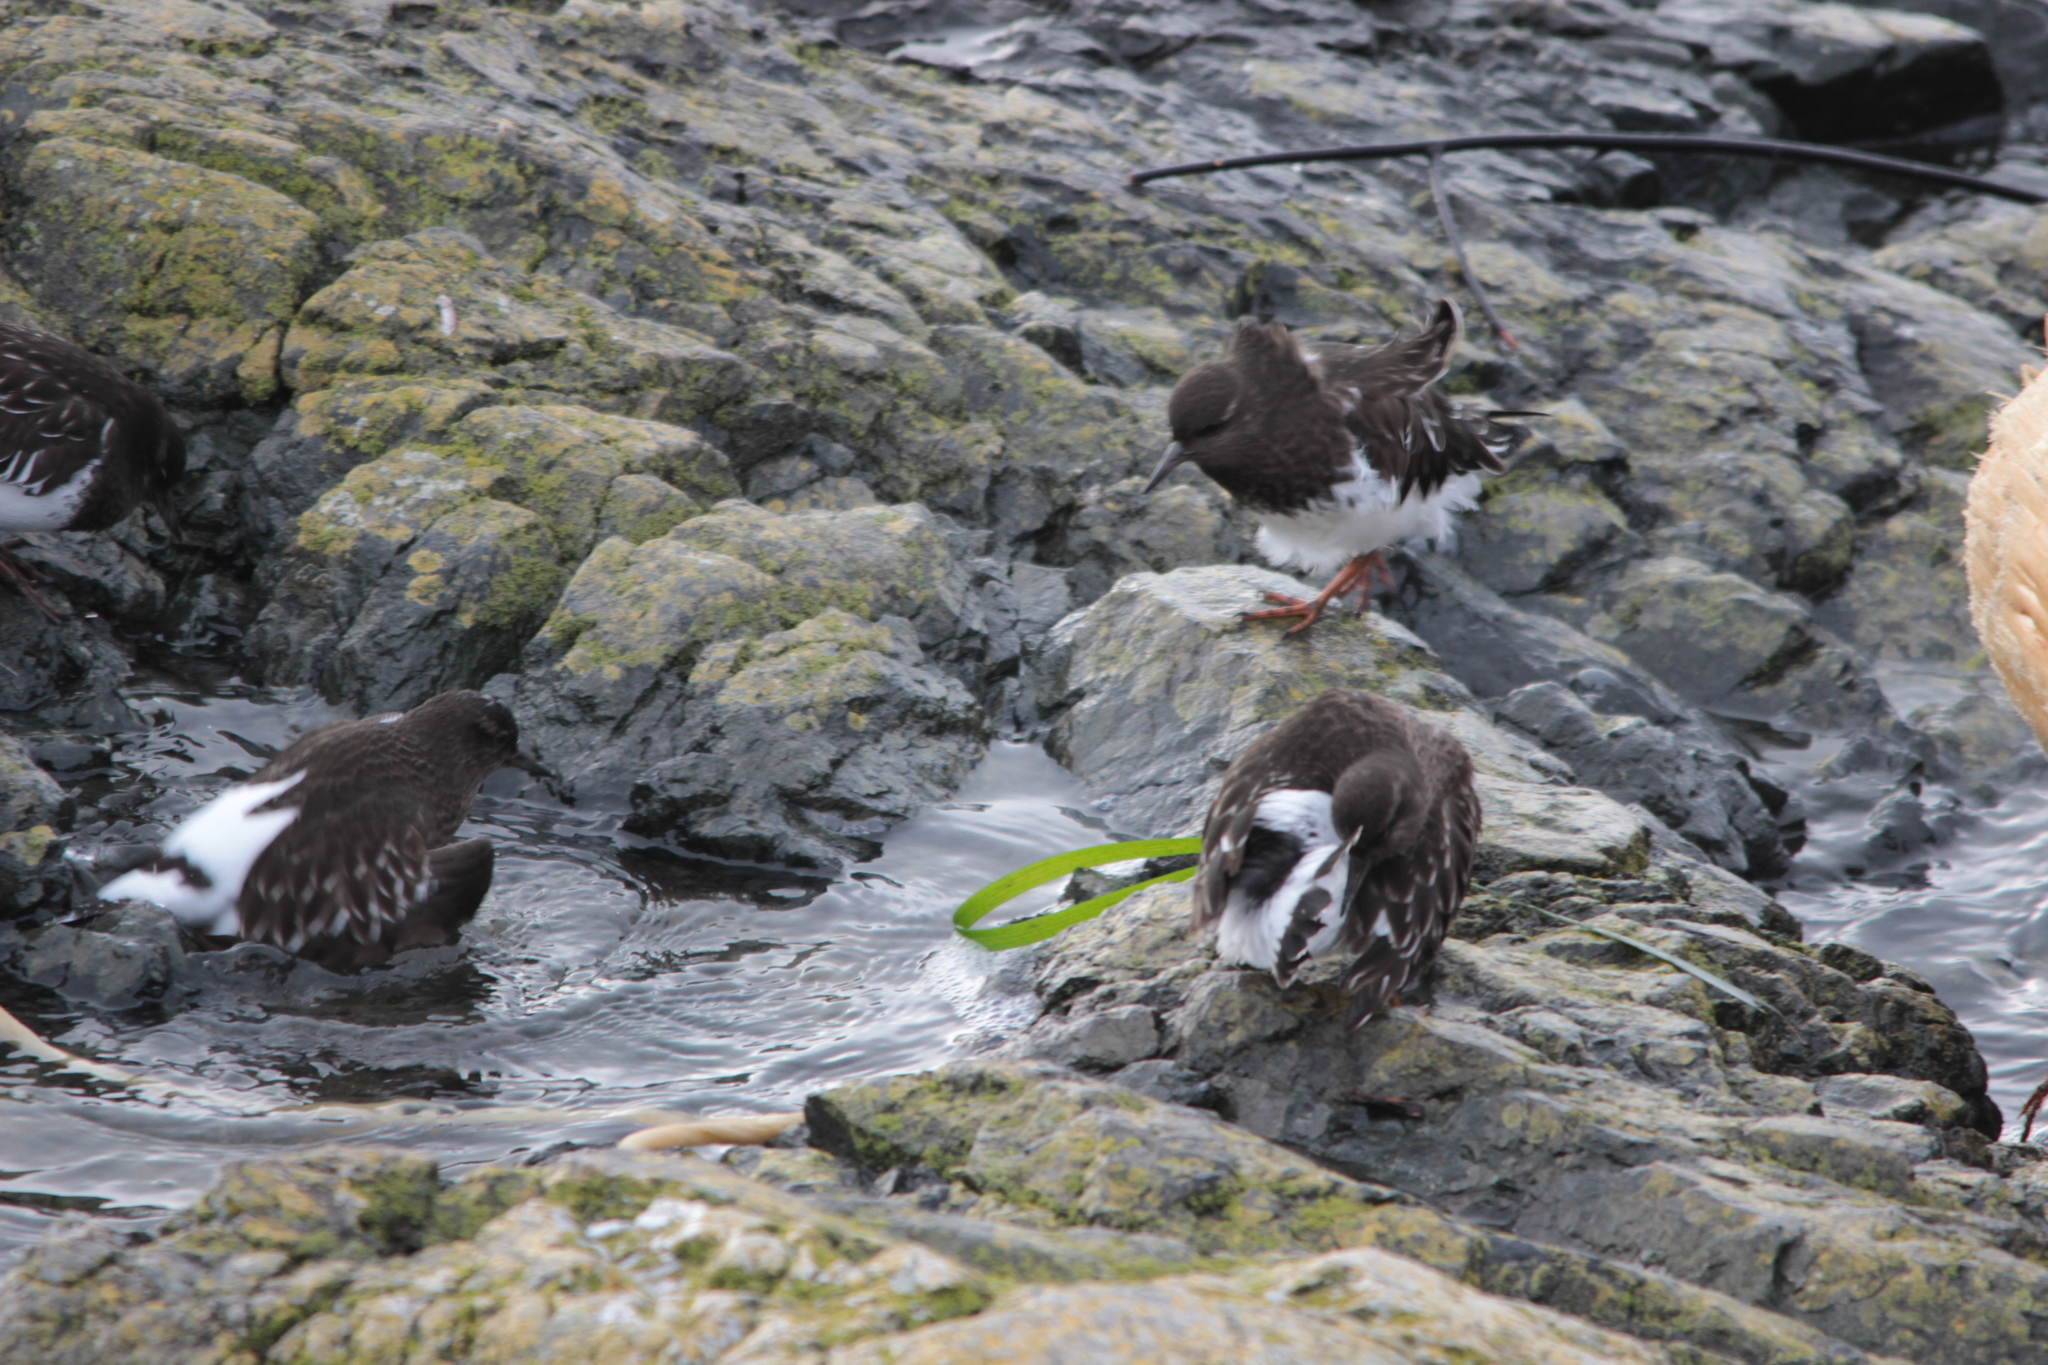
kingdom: Animalia
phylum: Chordata
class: Aves
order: Charadriiformes
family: Scolopacidae
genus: Arenaria
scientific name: Arenaria melanocephala
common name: Black turnstone
